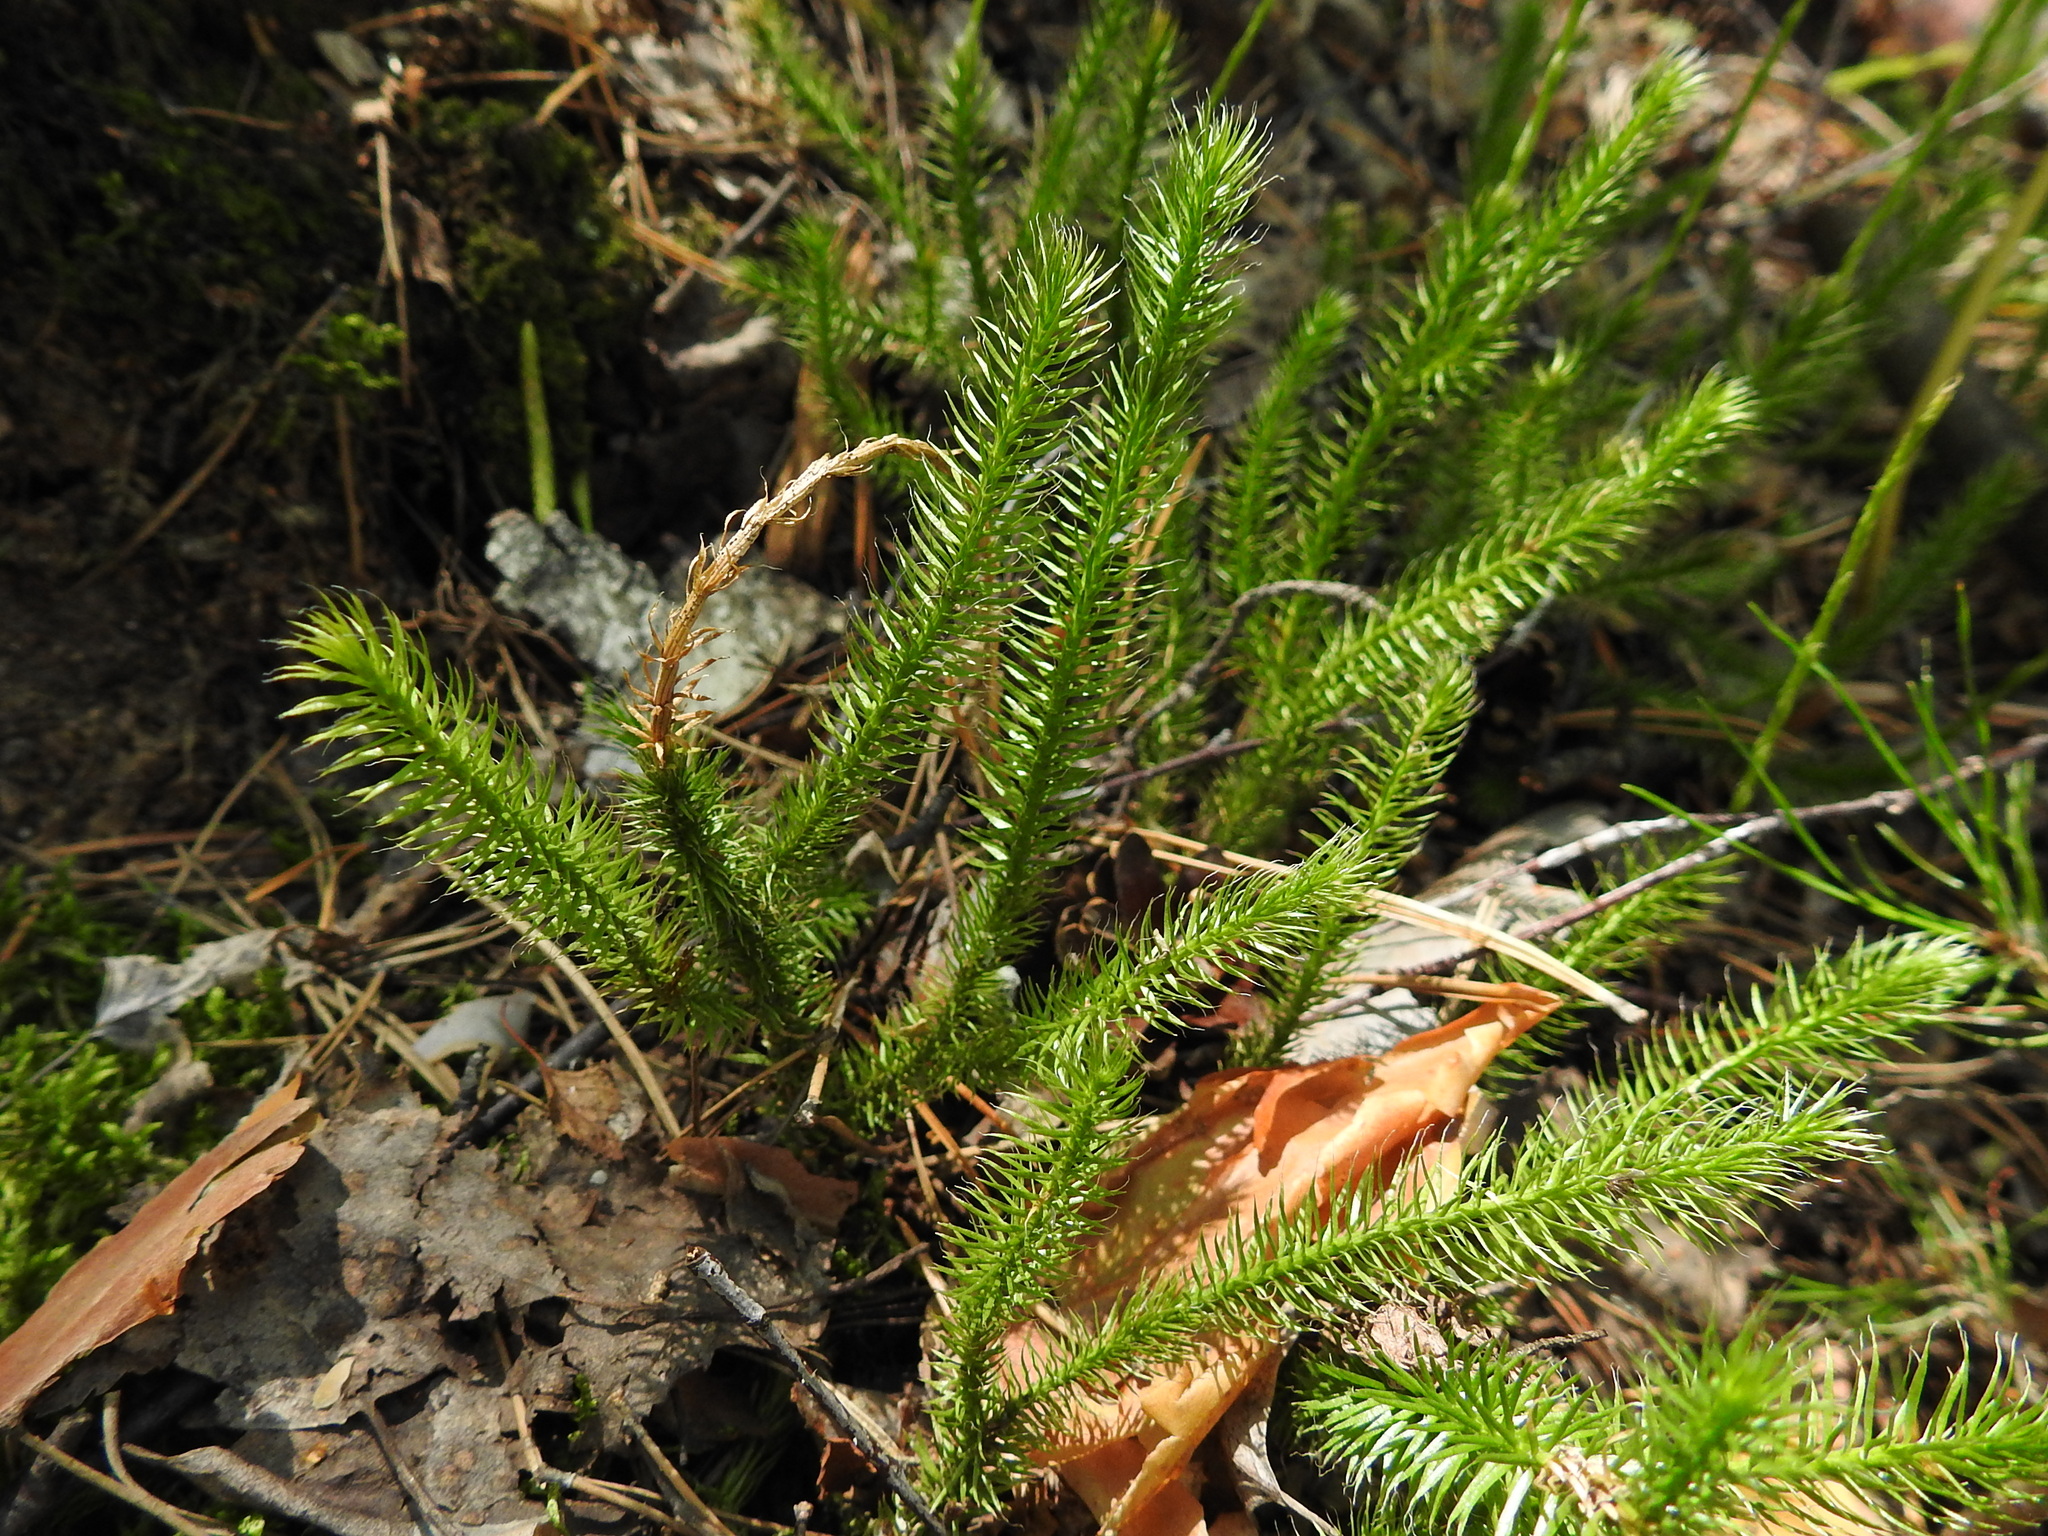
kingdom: Plantae
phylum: Tracheophyta
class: Lycopodiopsida
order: Lycopodiales
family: Lycopodiaceae
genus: Lycopodium
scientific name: Lycopodium clavatum
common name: Stag's-horn clubmoss
